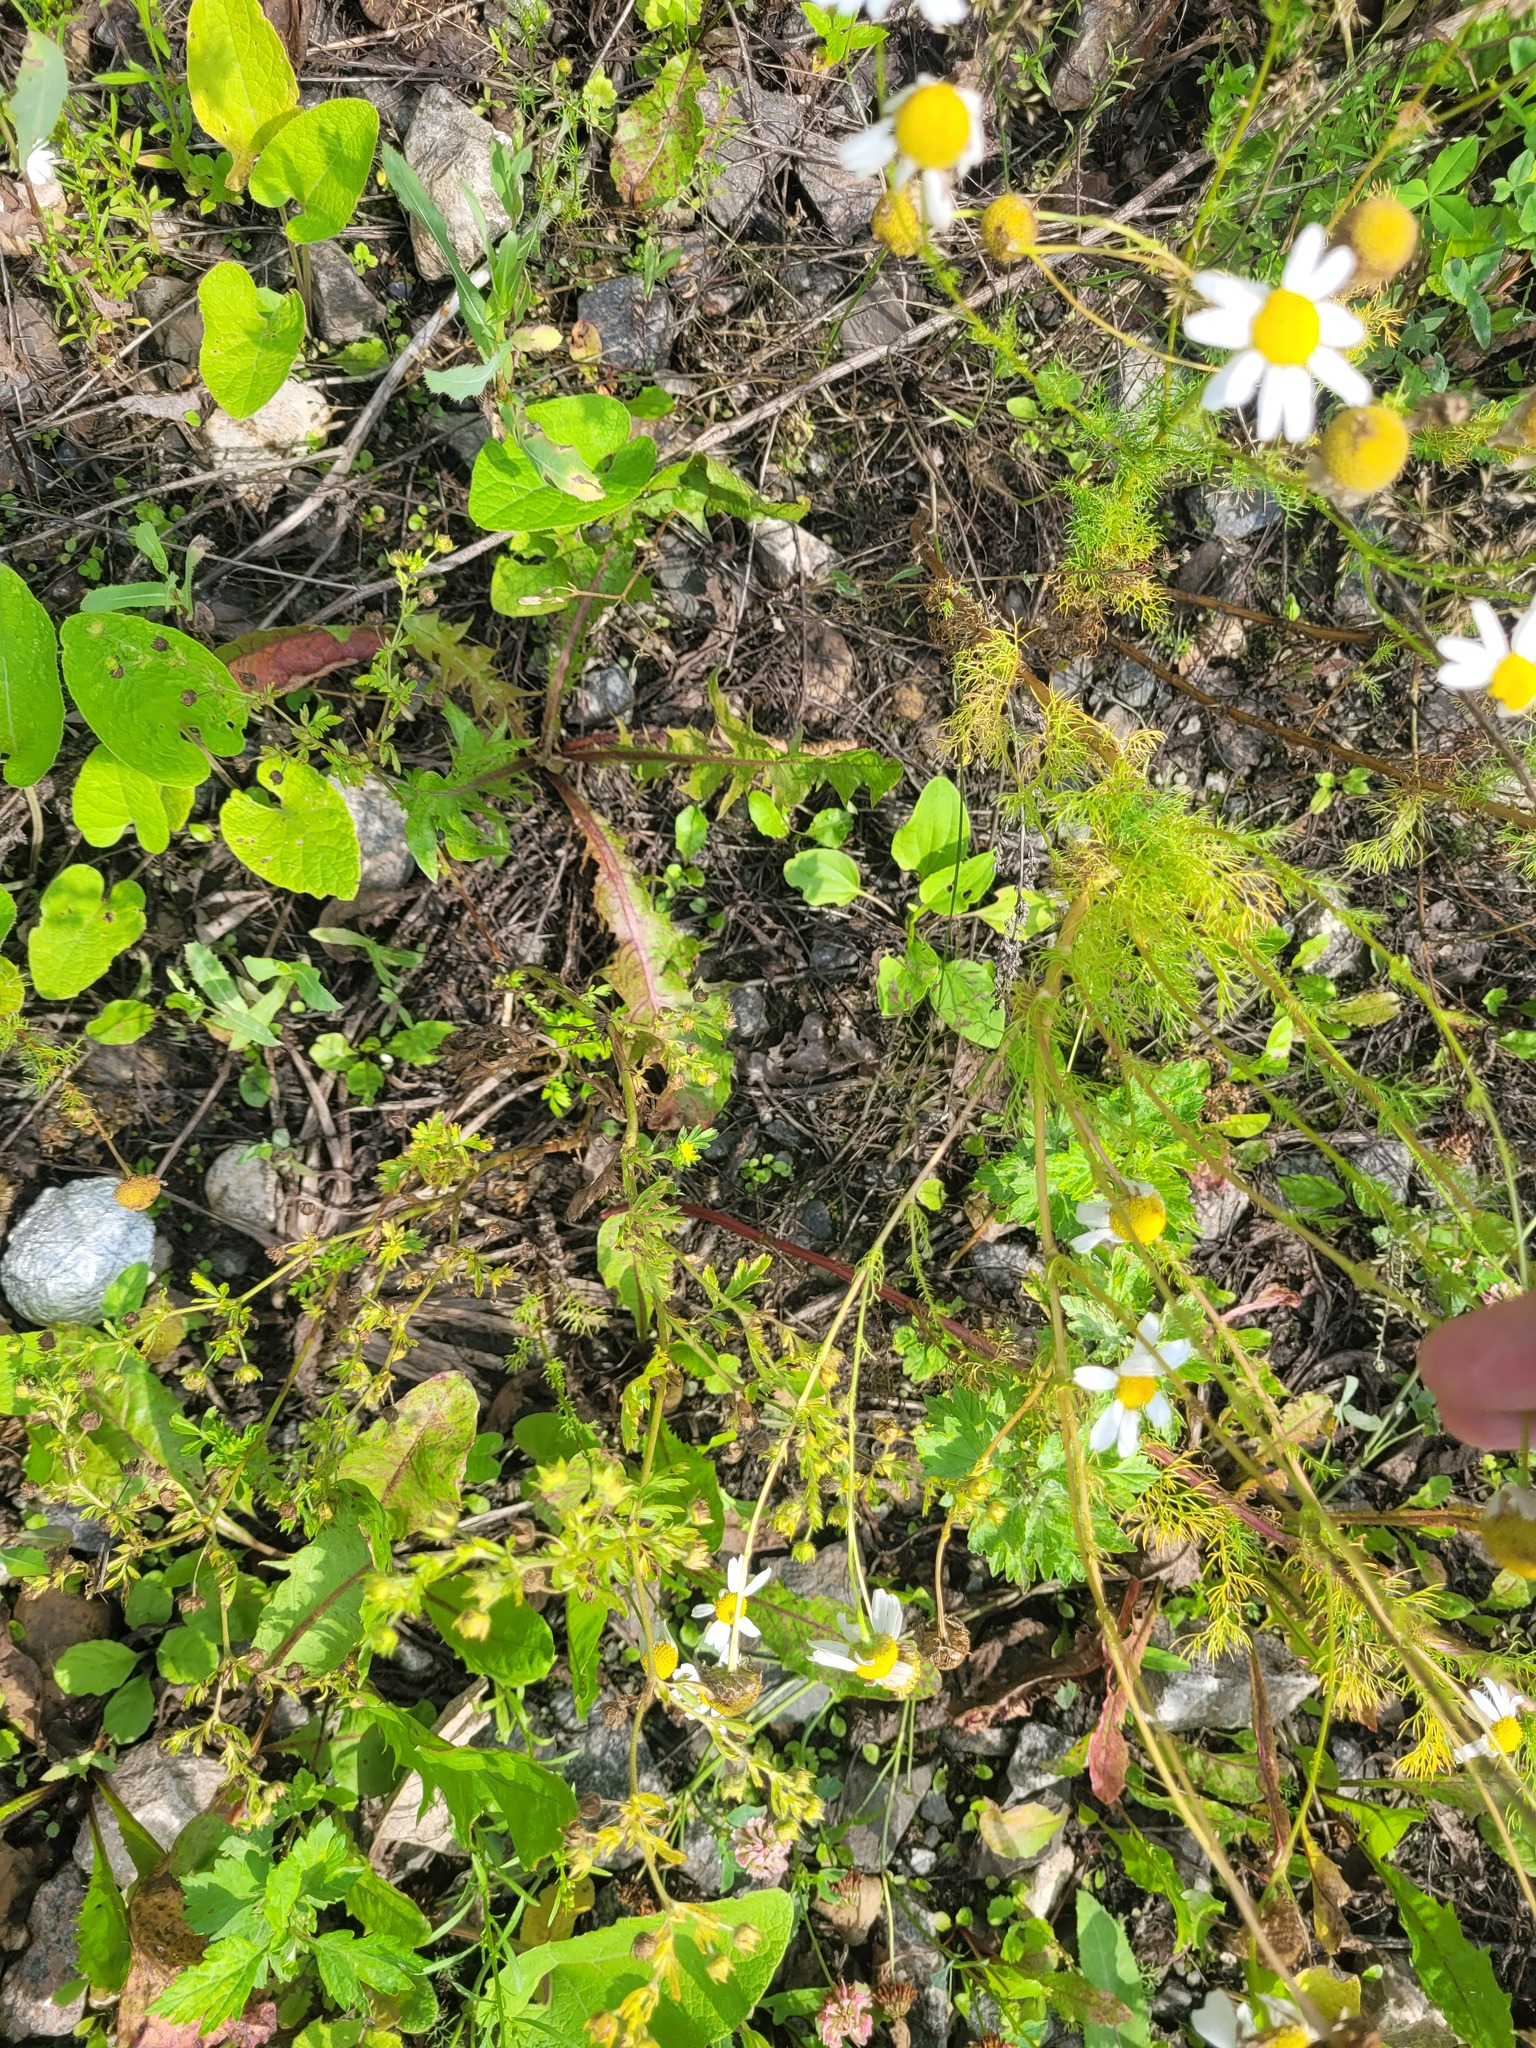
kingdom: Plantae
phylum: Tracheophyta
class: Magnoliopsida
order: Rosales
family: Rosaceae
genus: Potentilla
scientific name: Potentilla supina
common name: Prostrate cinquefoil
